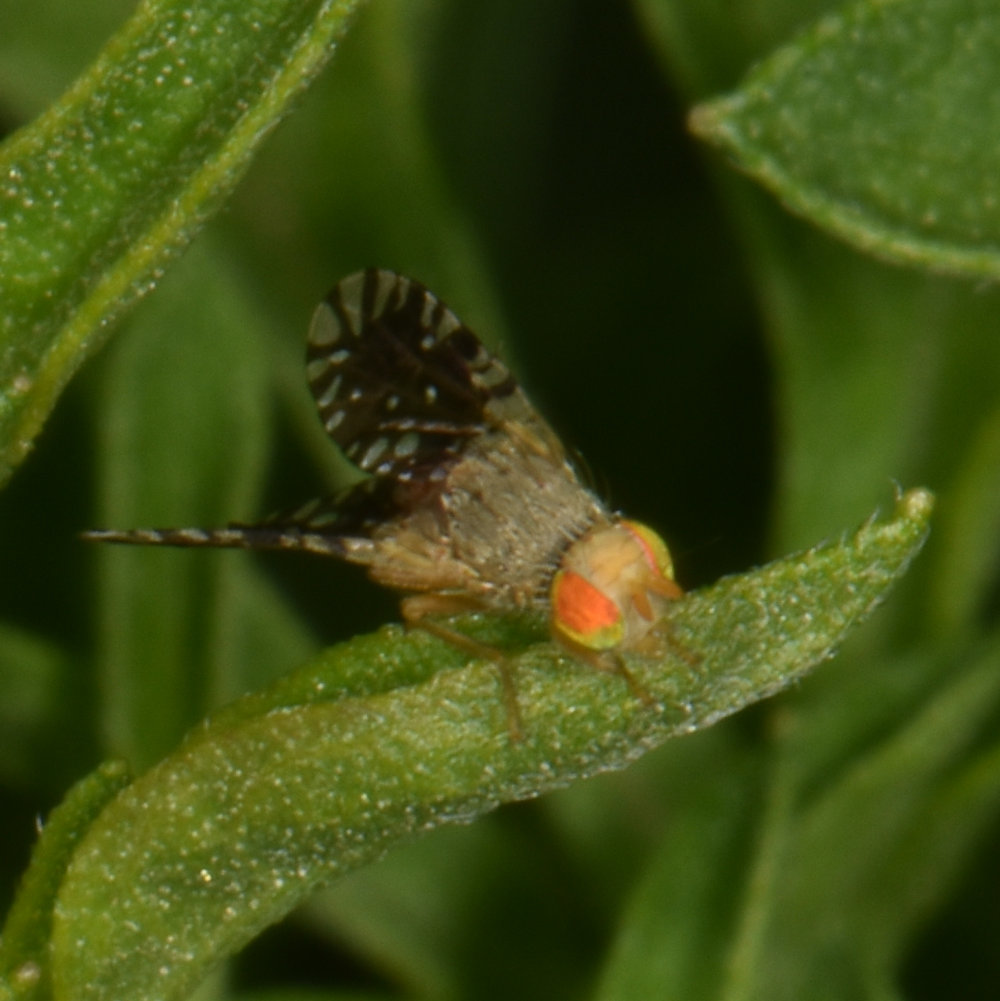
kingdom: Animalia
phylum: Arthropoda
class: Insecta
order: Diptera
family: Tephritidae
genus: Euaresta
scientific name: Euaresta bella
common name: Common ragweed fruit fly
